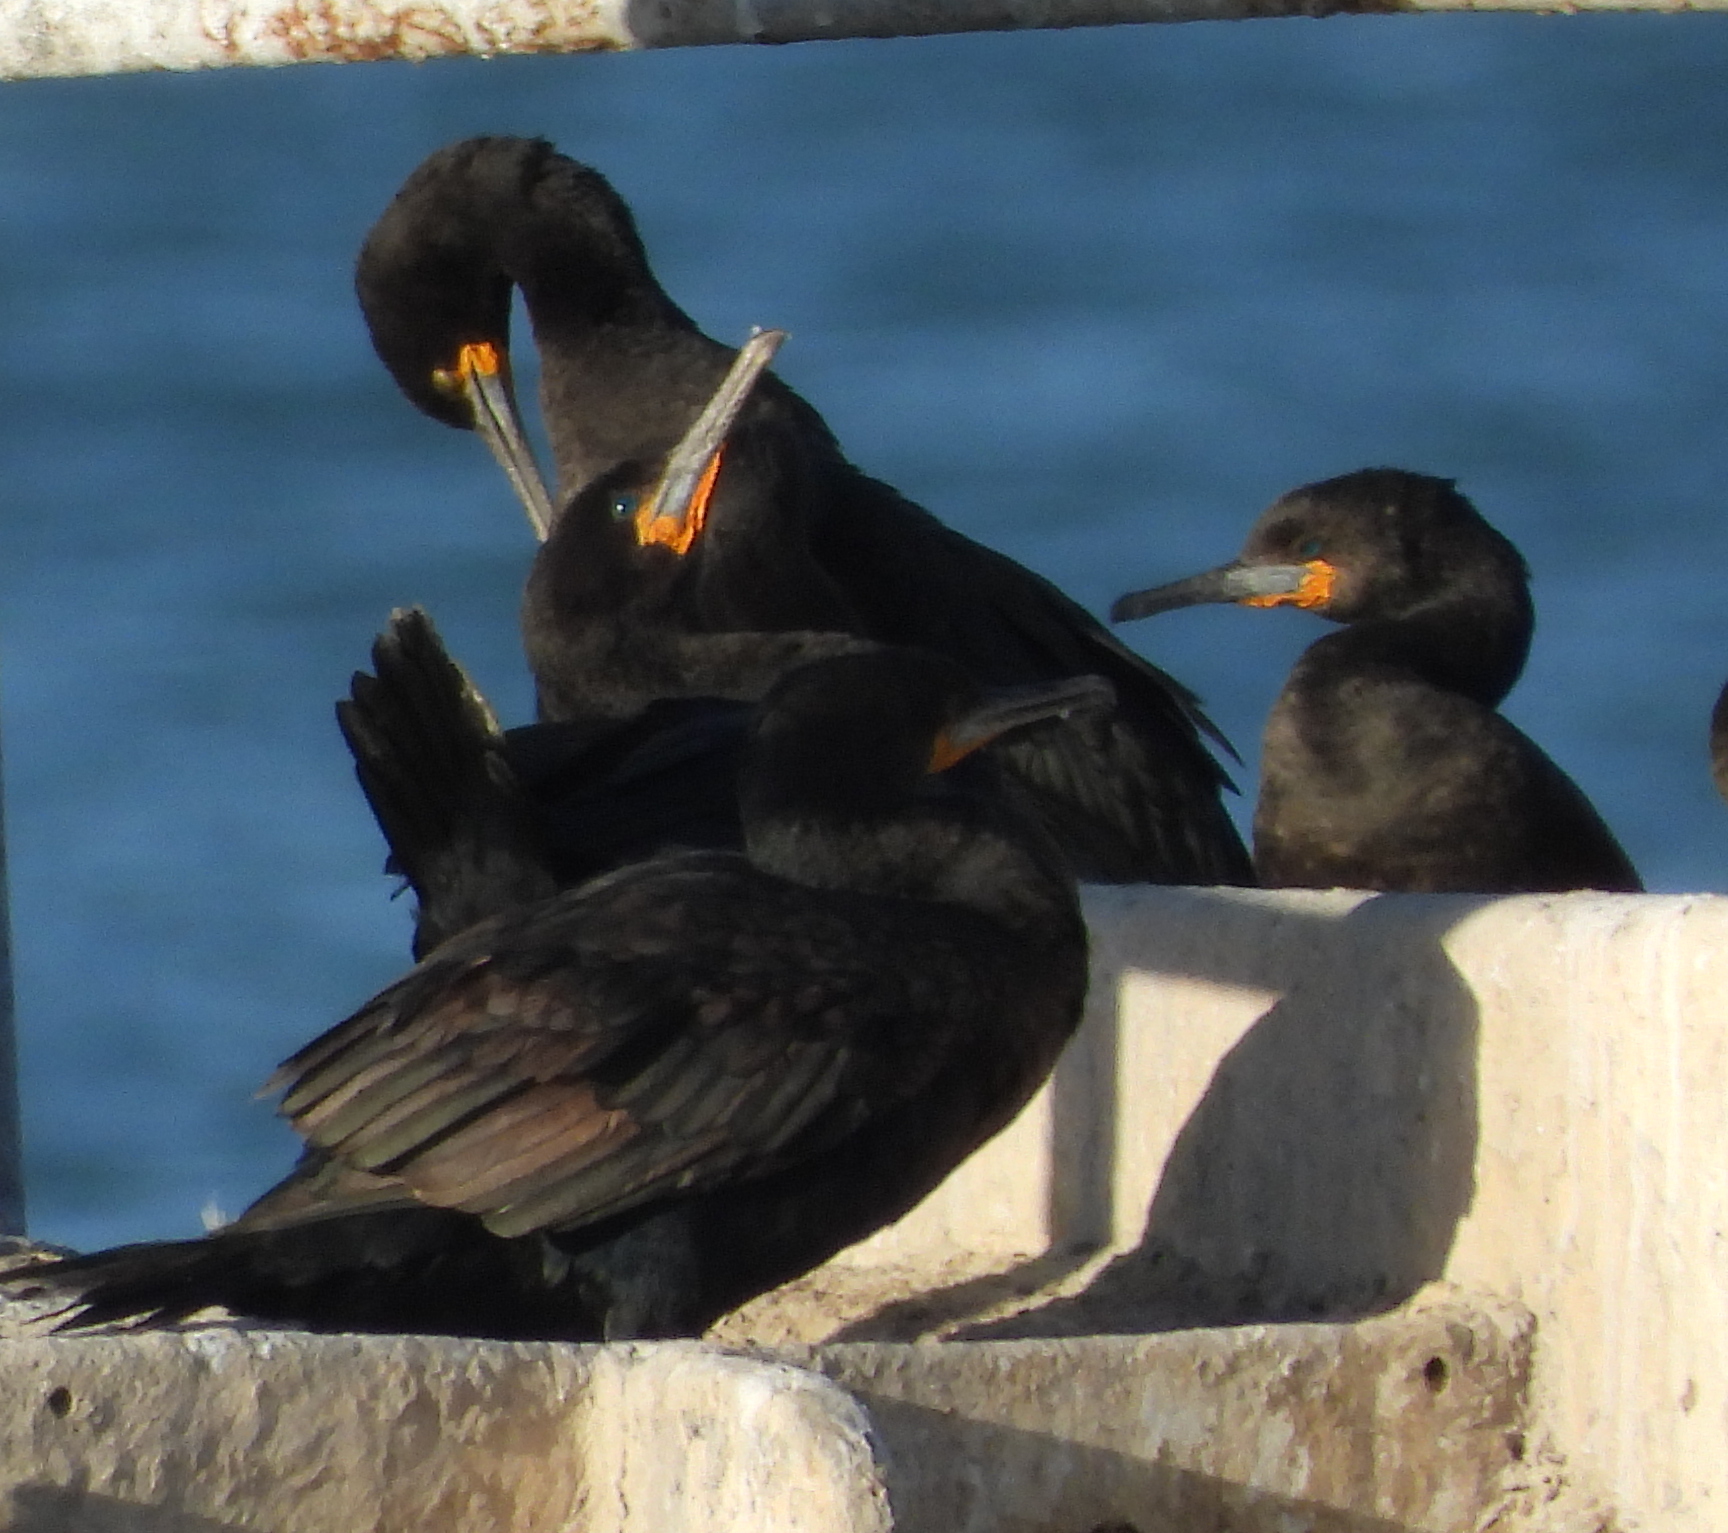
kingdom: Animalia
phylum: Chordata
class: Aves
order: Suliformes
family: Phalacrocoracidae
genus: Phalacrocorax
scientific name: Phalacrocorax capensis
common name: Cape cormorant
